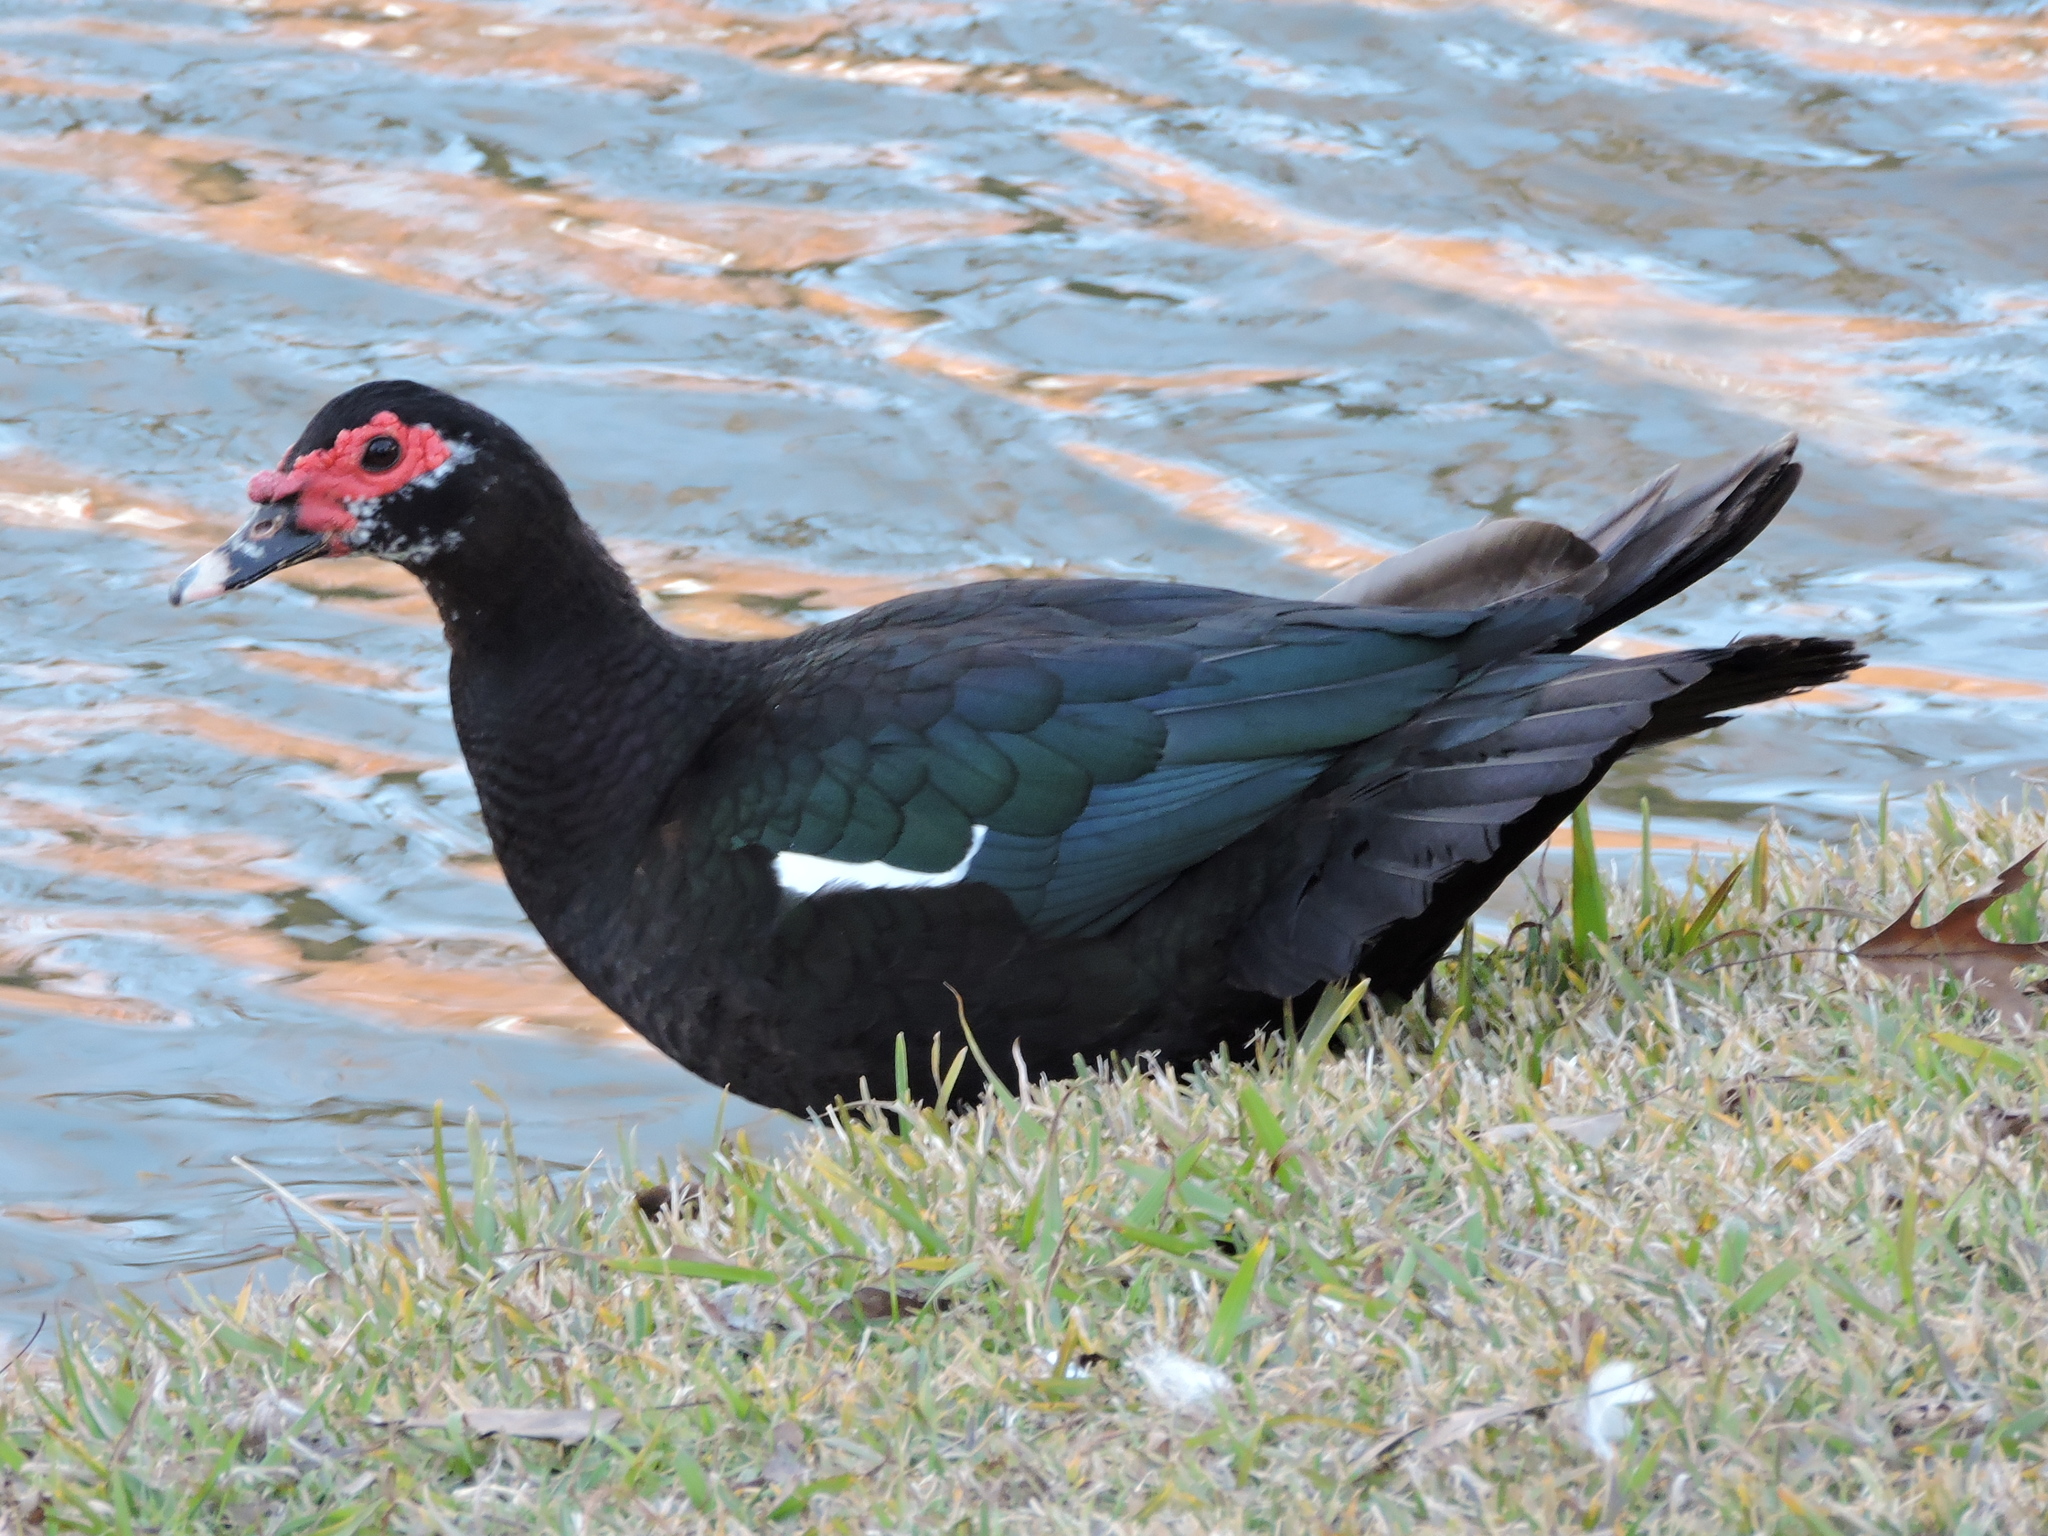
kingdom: Animalia
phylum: Chordata
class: Aves
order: Anseriformes
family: Anatidae
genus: Cairina
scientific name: Cairina moschata
